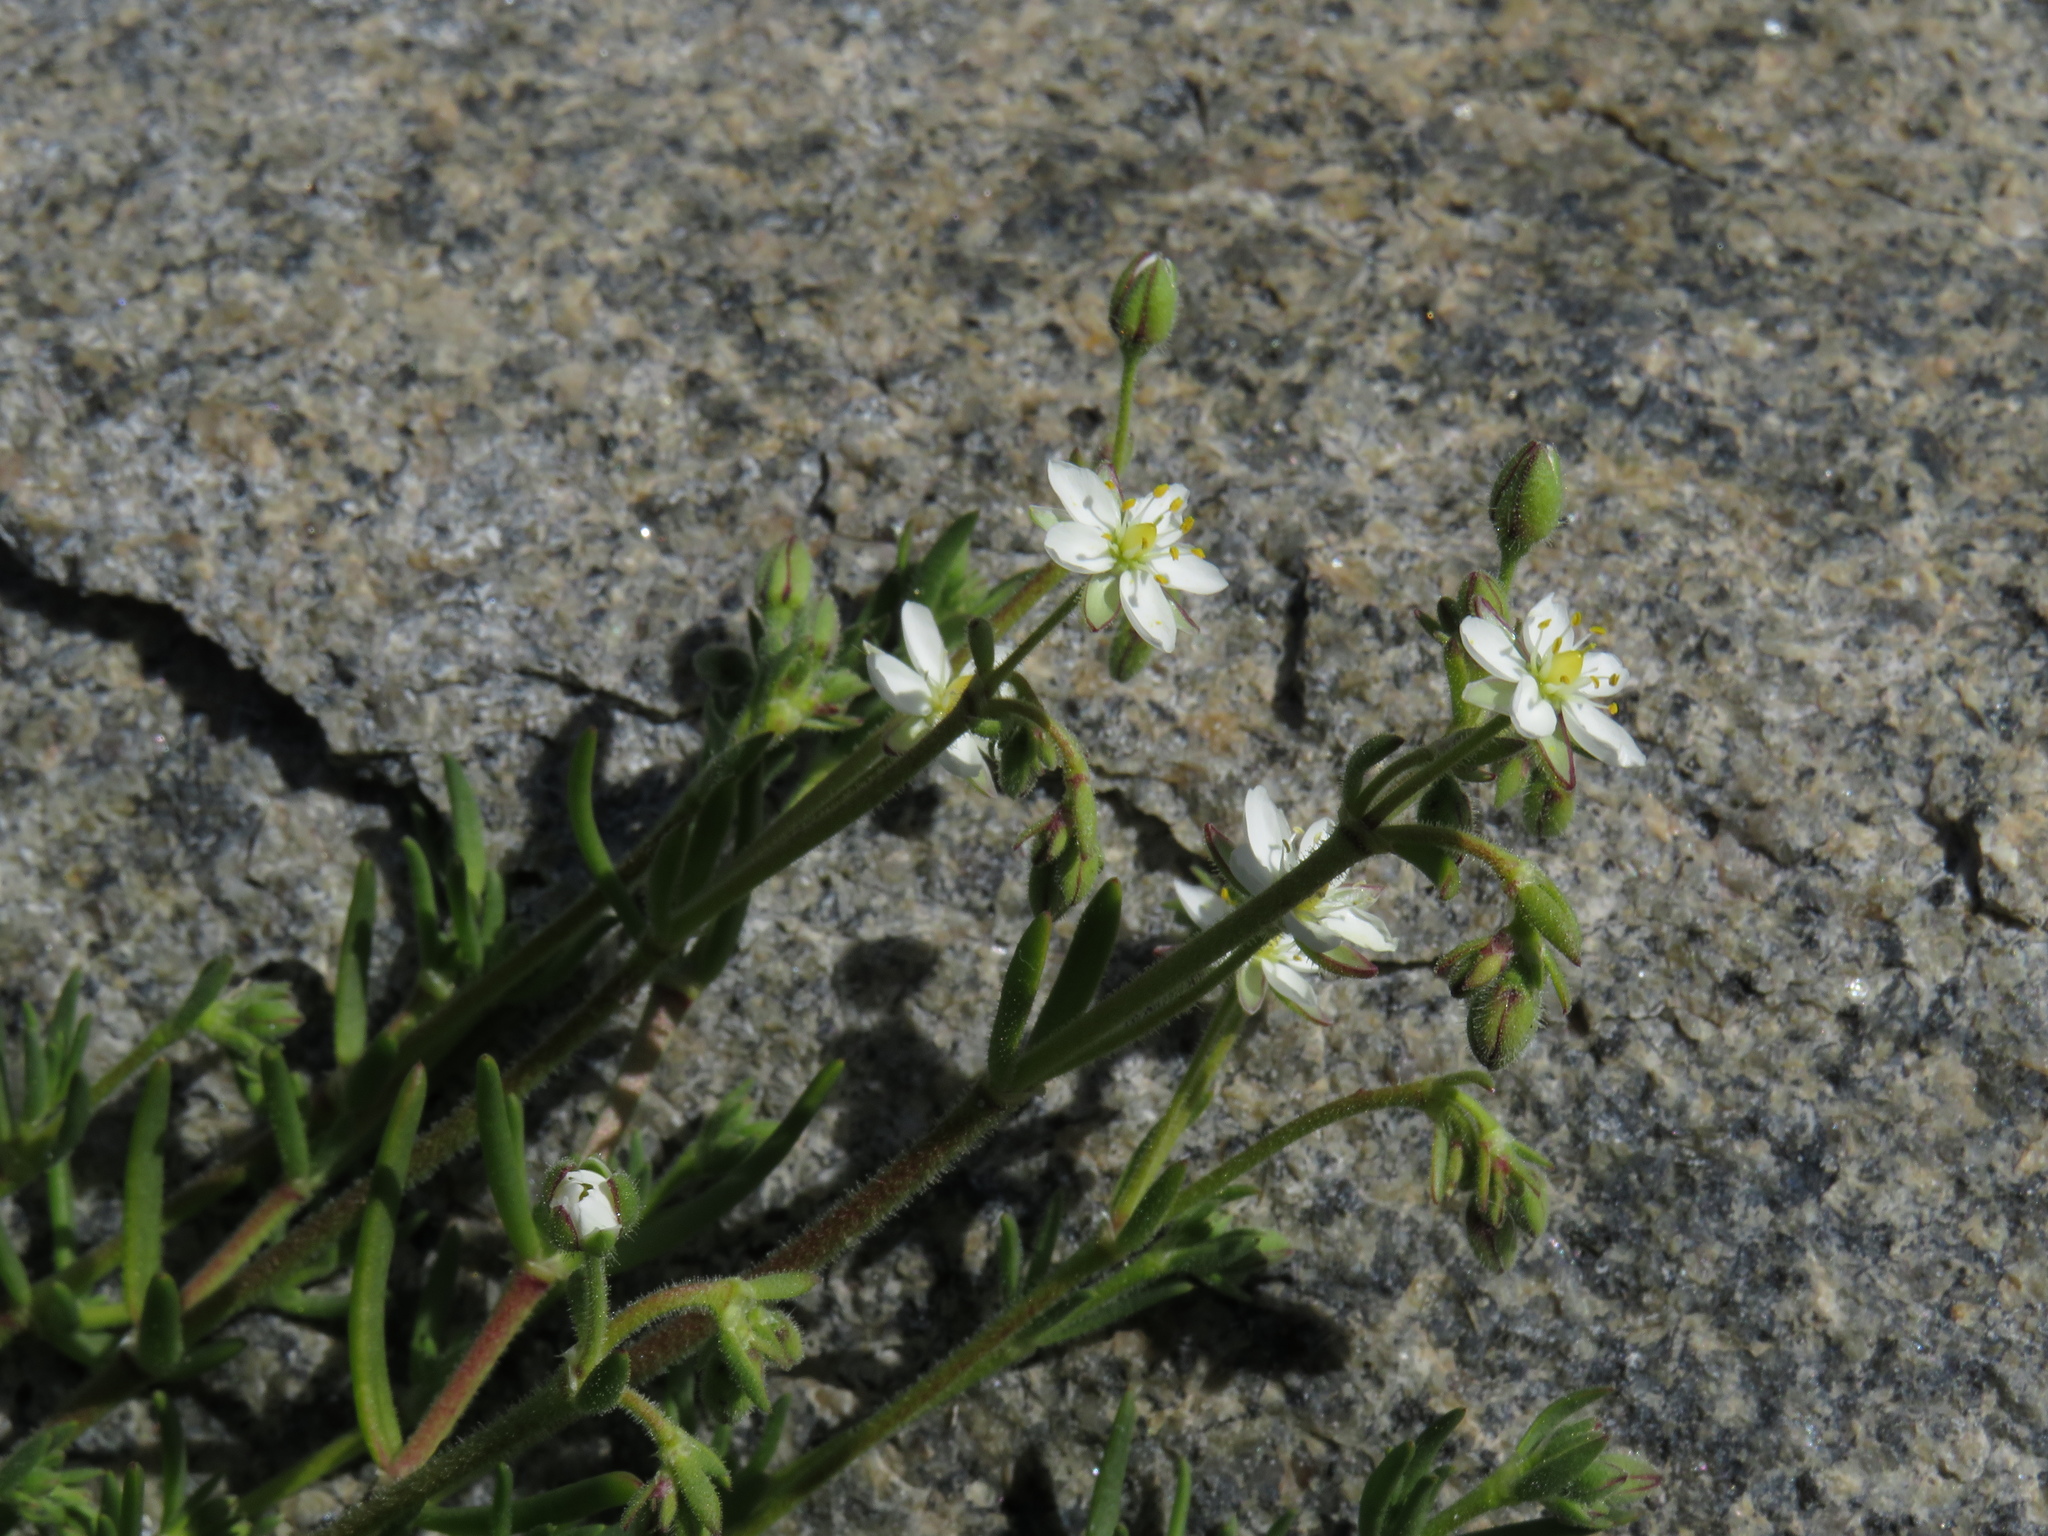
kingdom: Plantae
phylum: Tracheophyta
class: Magnoliopsida
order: Caryophyllales
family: Caryophyllaceae
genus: Spergularia
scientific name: Spergularia media
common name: Greater sea-spurrey
